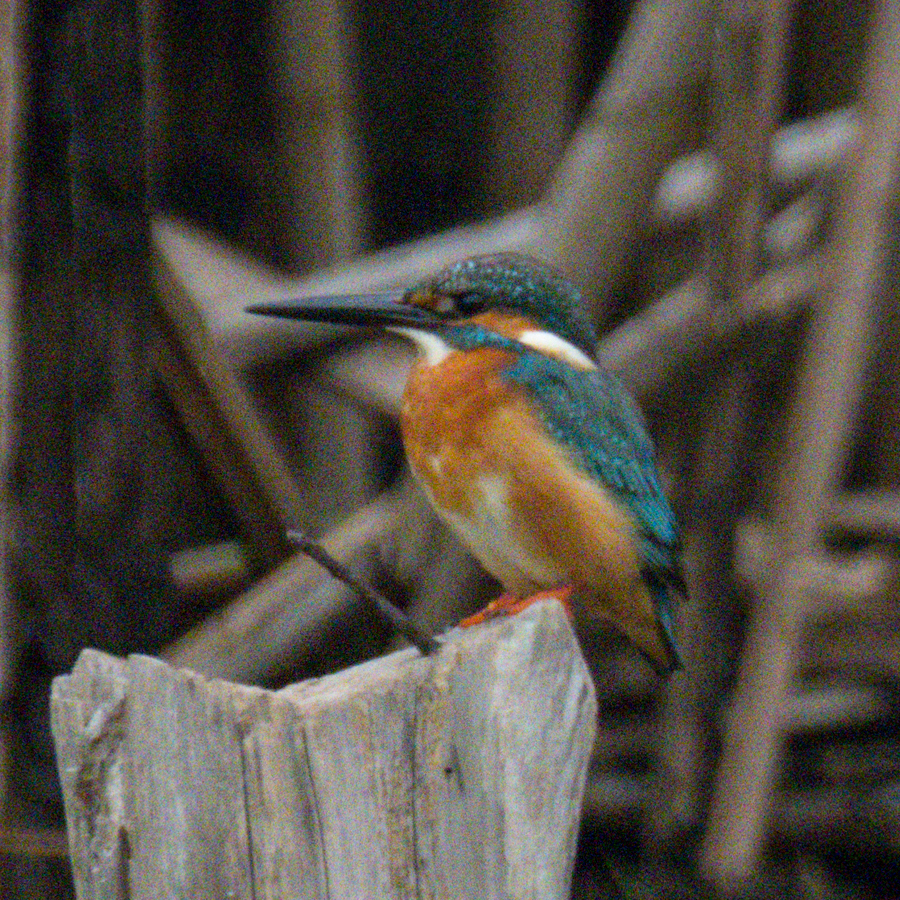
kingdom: Animalia
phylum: Chordata
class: Aves
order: Coraciiformes
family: Alcedinidae
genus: Alcedo
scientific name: Alcedo atthis
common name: Common kingfisher
